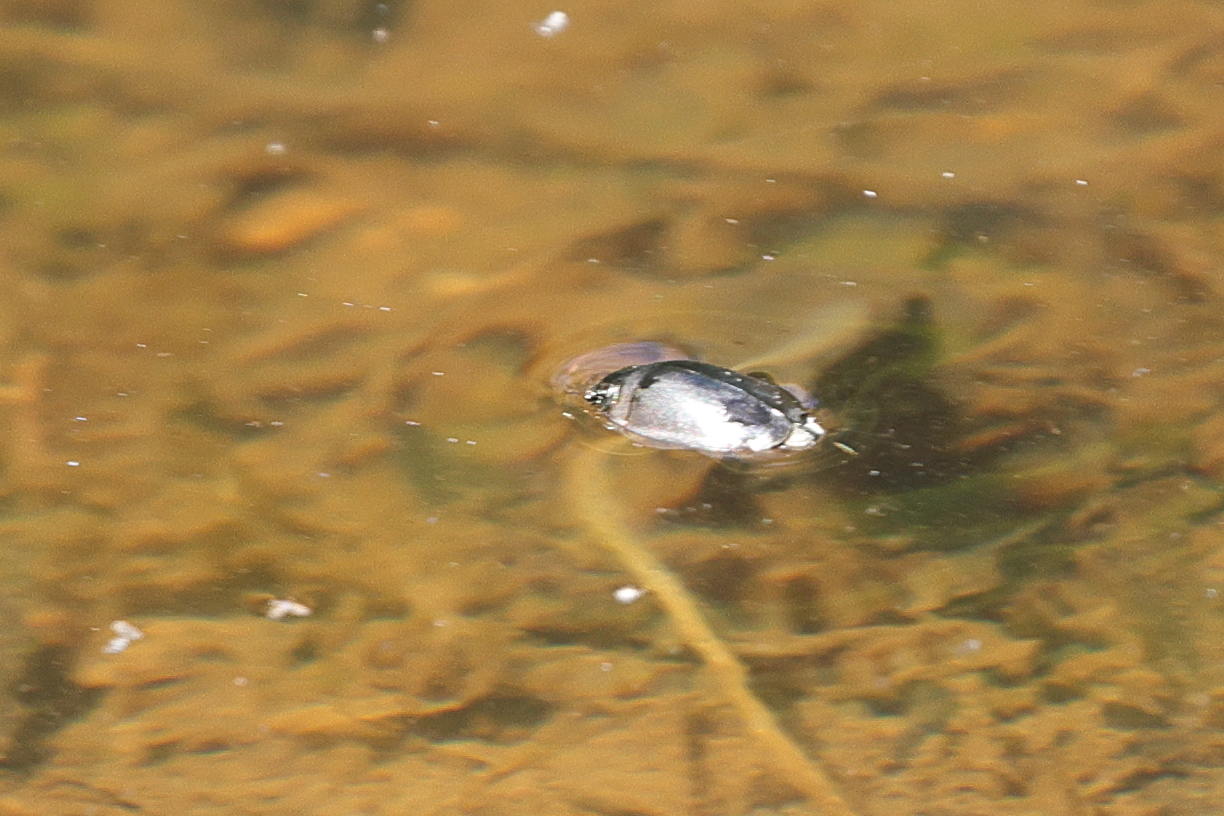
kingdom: Animalia
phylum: Arthropoda
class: Insecta
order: Coleoptera
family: Gyrinidae
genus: Dineutus
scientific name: Dineutus
